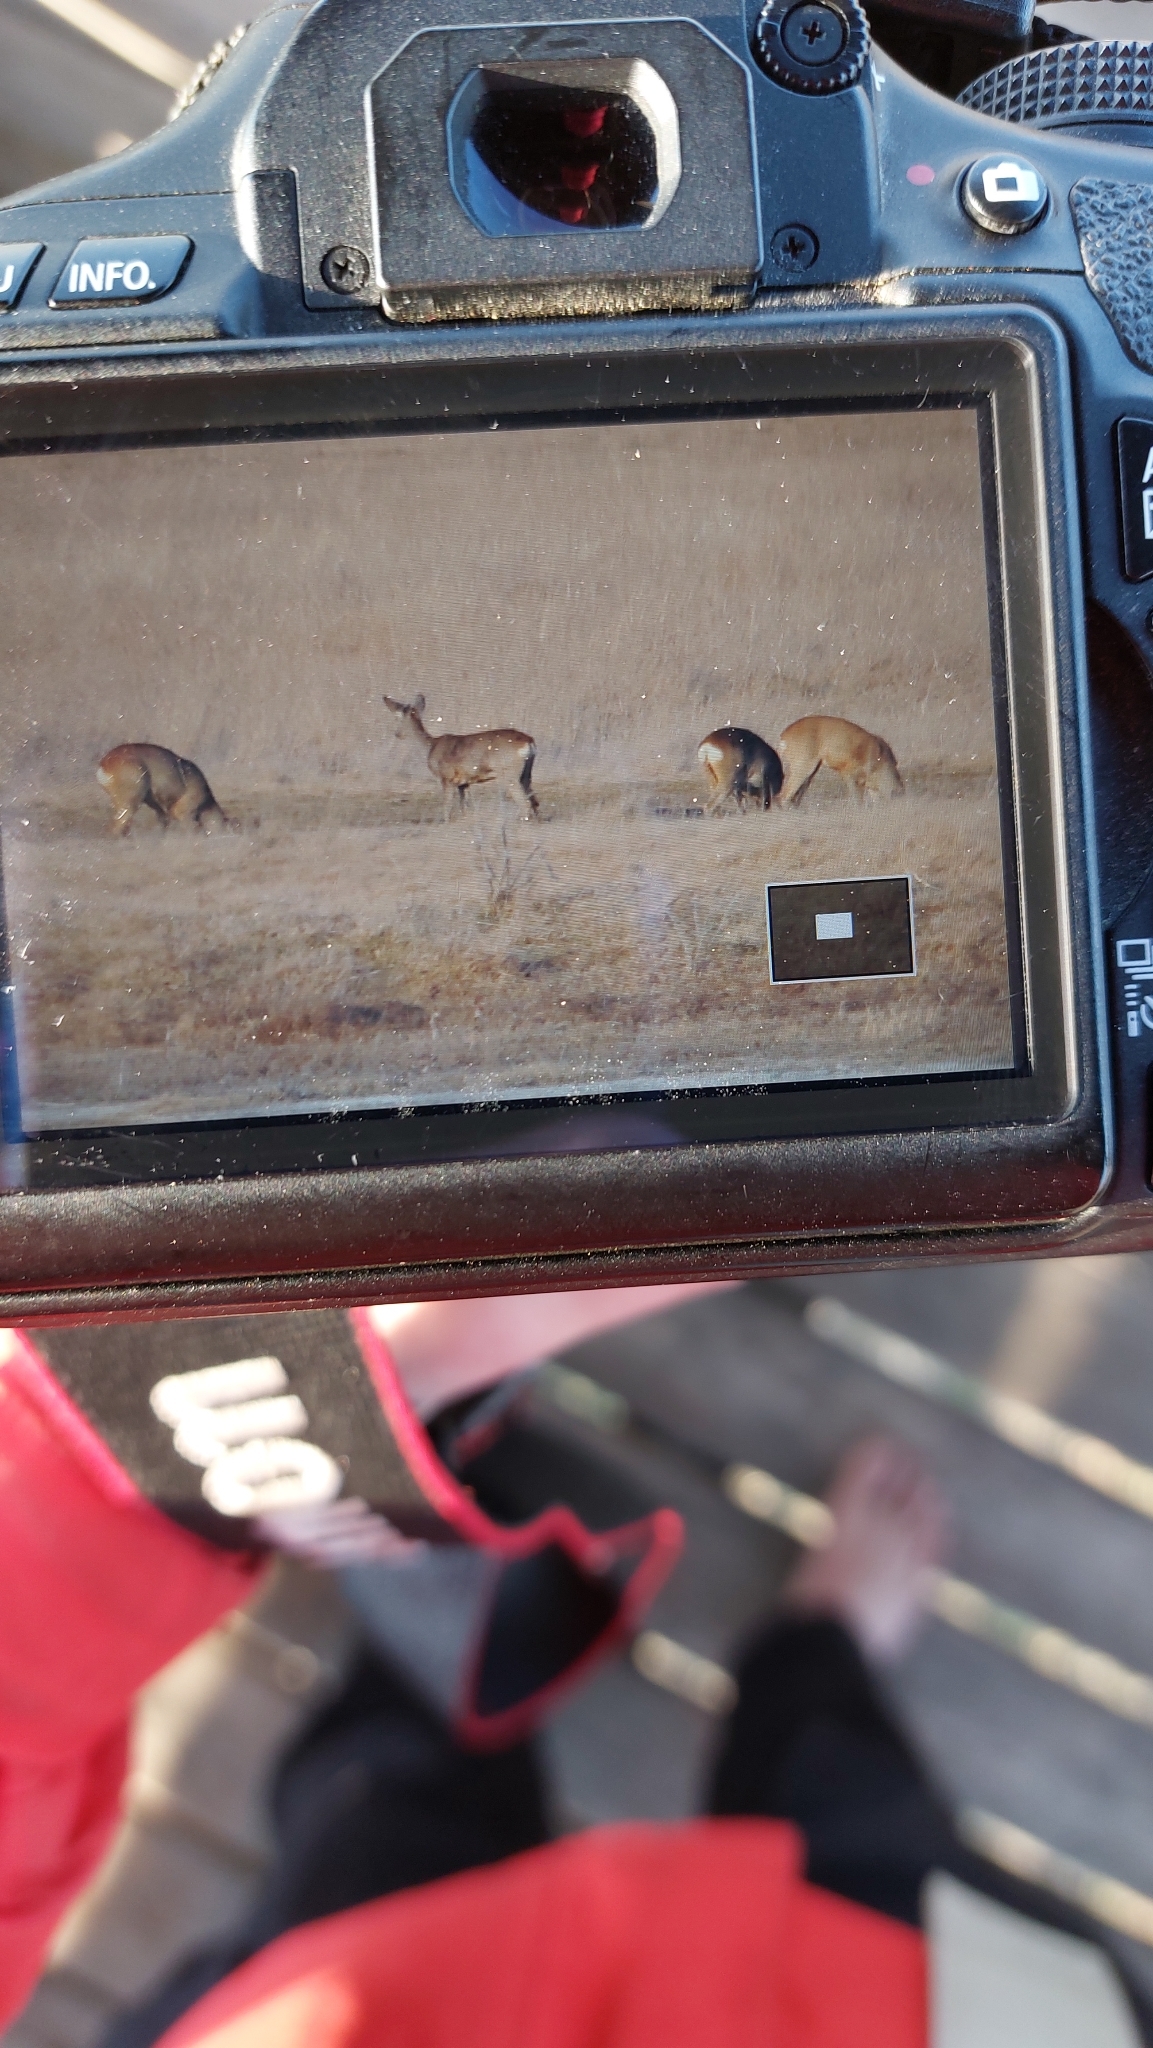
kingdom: Animalia
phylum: Chordata
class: Mammalia
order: Artiodactyla
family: Cervidae
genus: Capreolus
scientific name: Capreolus capreolus
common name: Western roe deer
